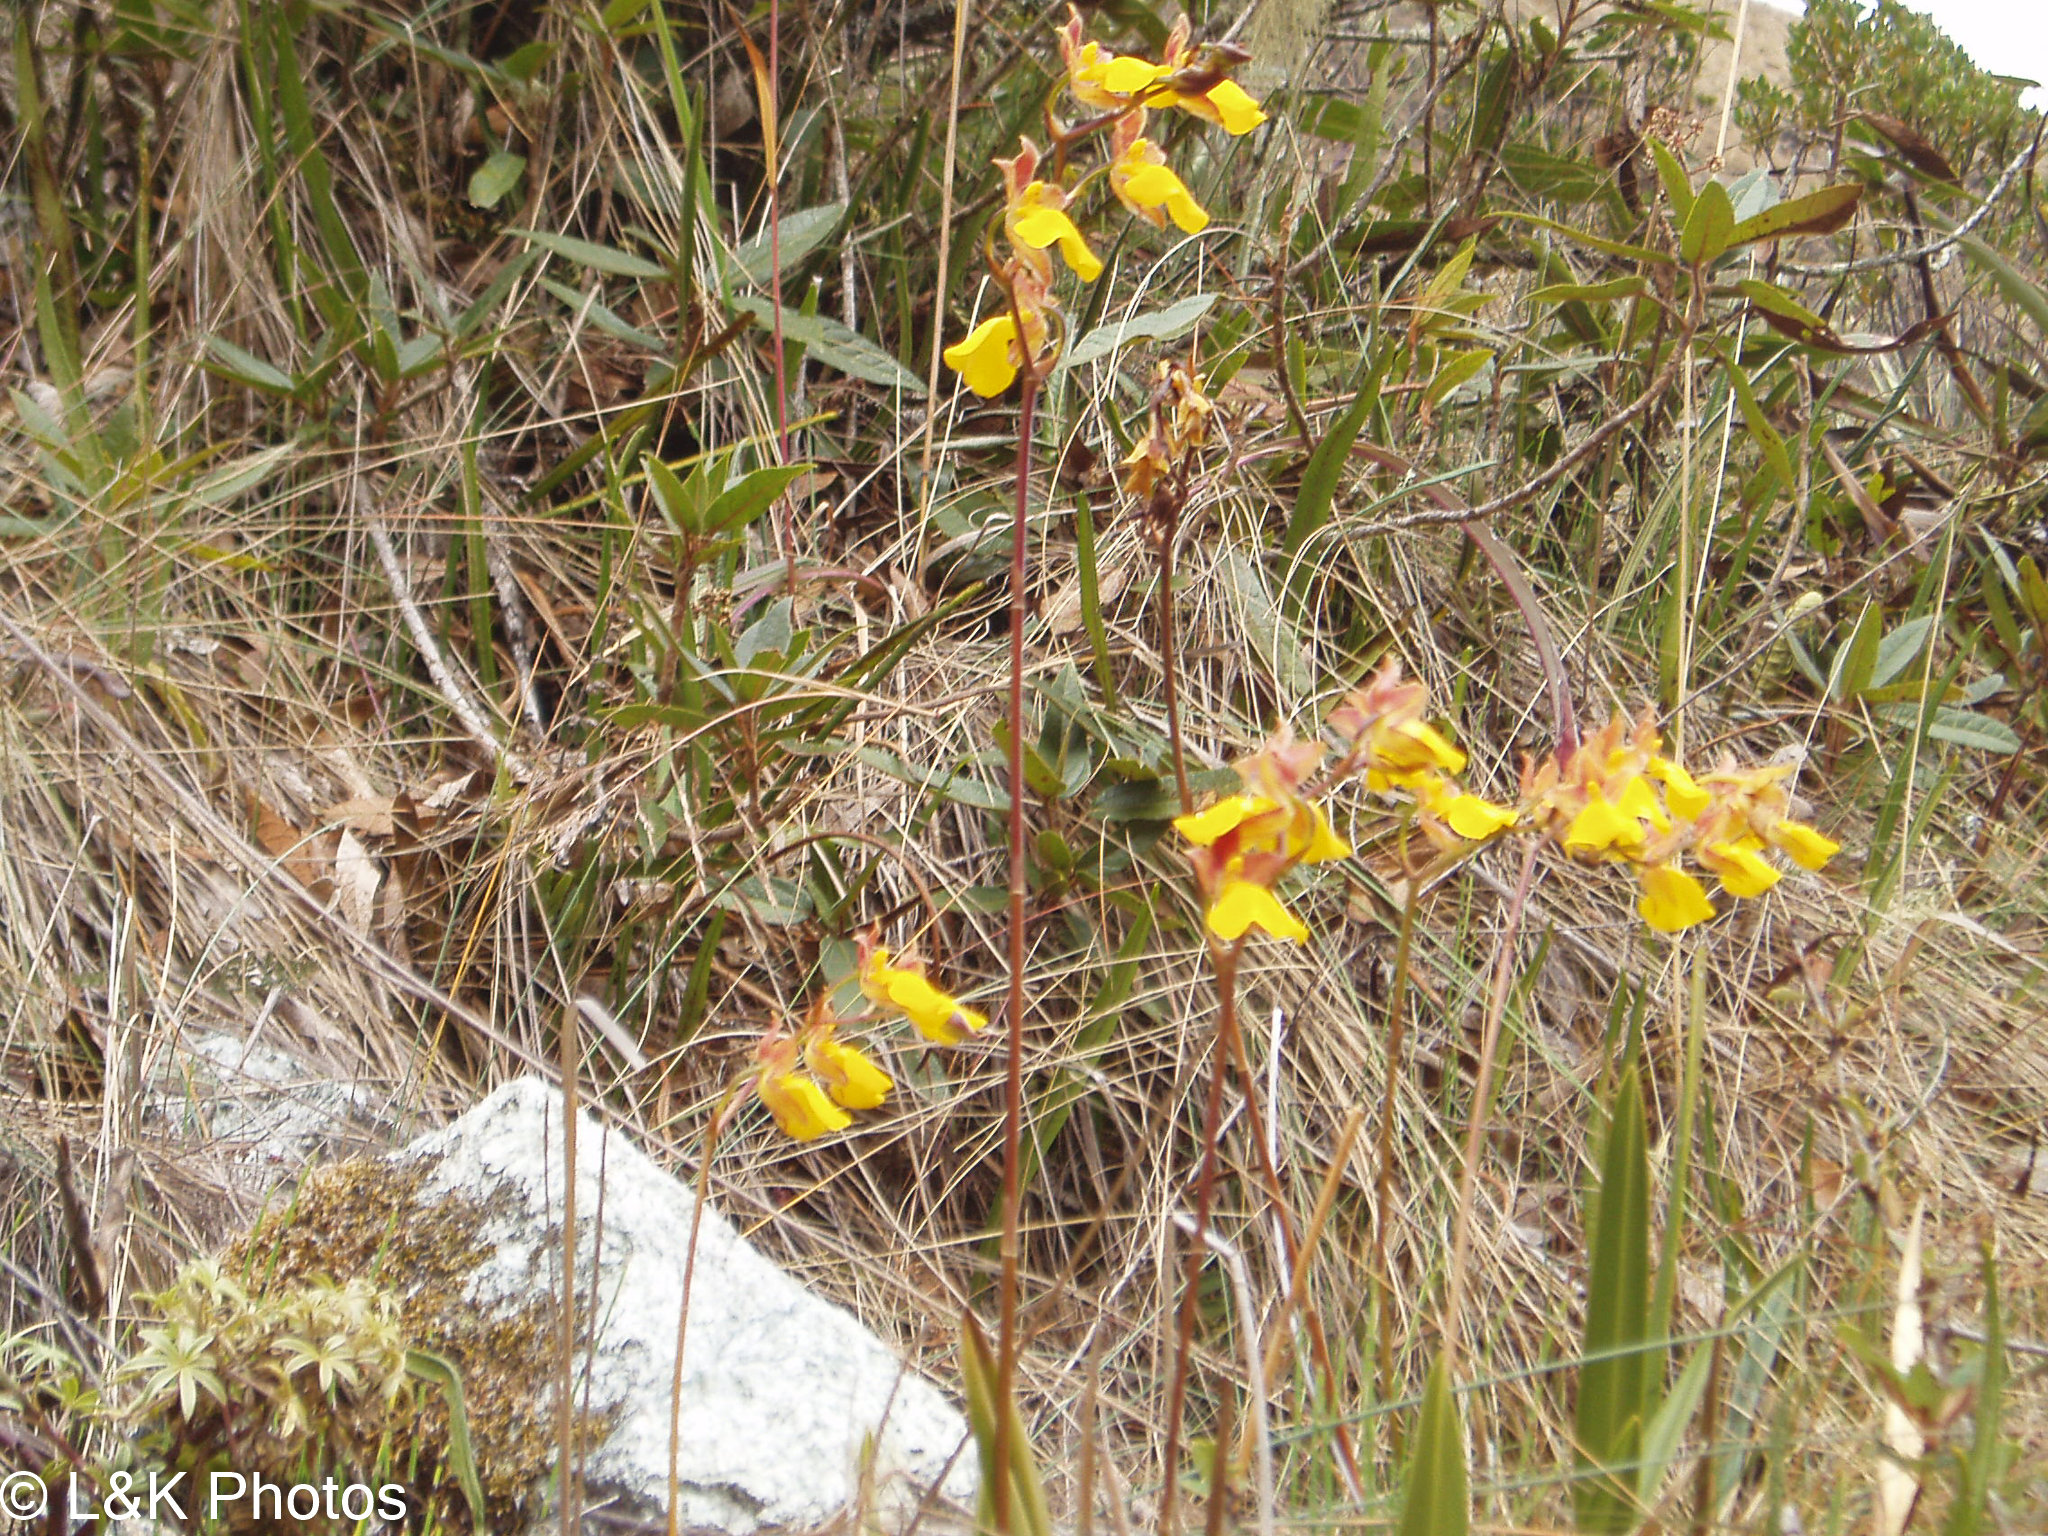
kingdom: Plantae
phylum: Tracheophyta
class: Liliopsida
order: Asparagales
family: Orchidaceae
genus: Cyrtochilum
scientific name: Cyrtochilum aureum
